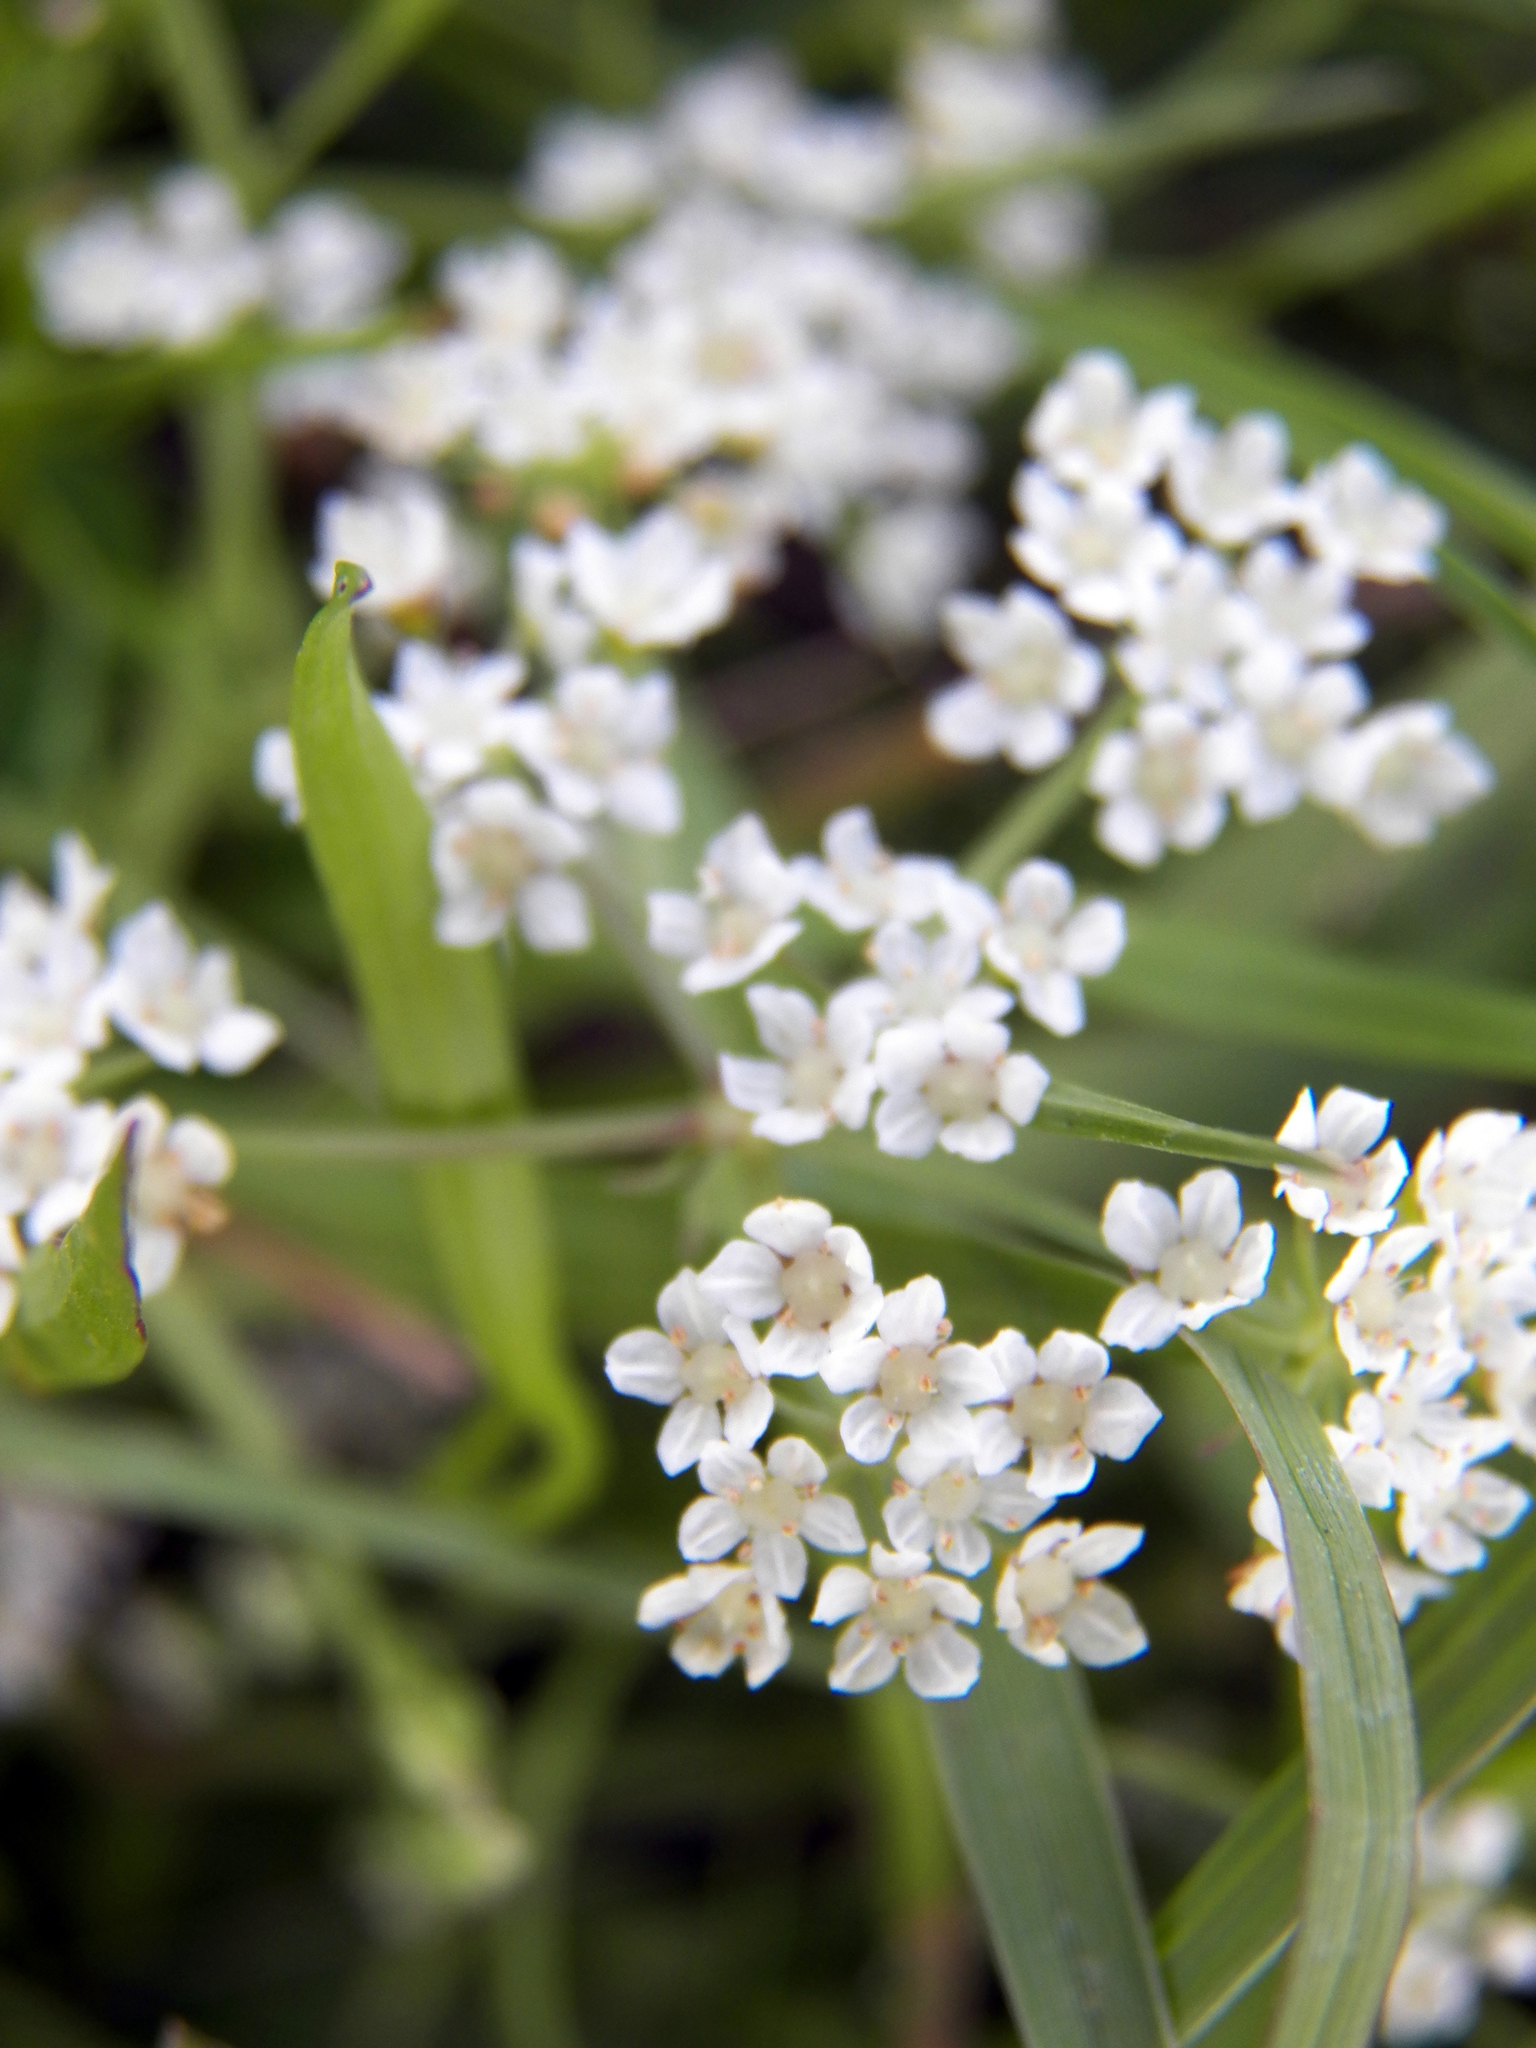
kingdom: Plantae
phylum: Tracheophyta
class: Magnoliopsida
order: Apiales
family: Apiaceae
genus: Limnosciadium
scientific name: Limnosciadium pinnatum
